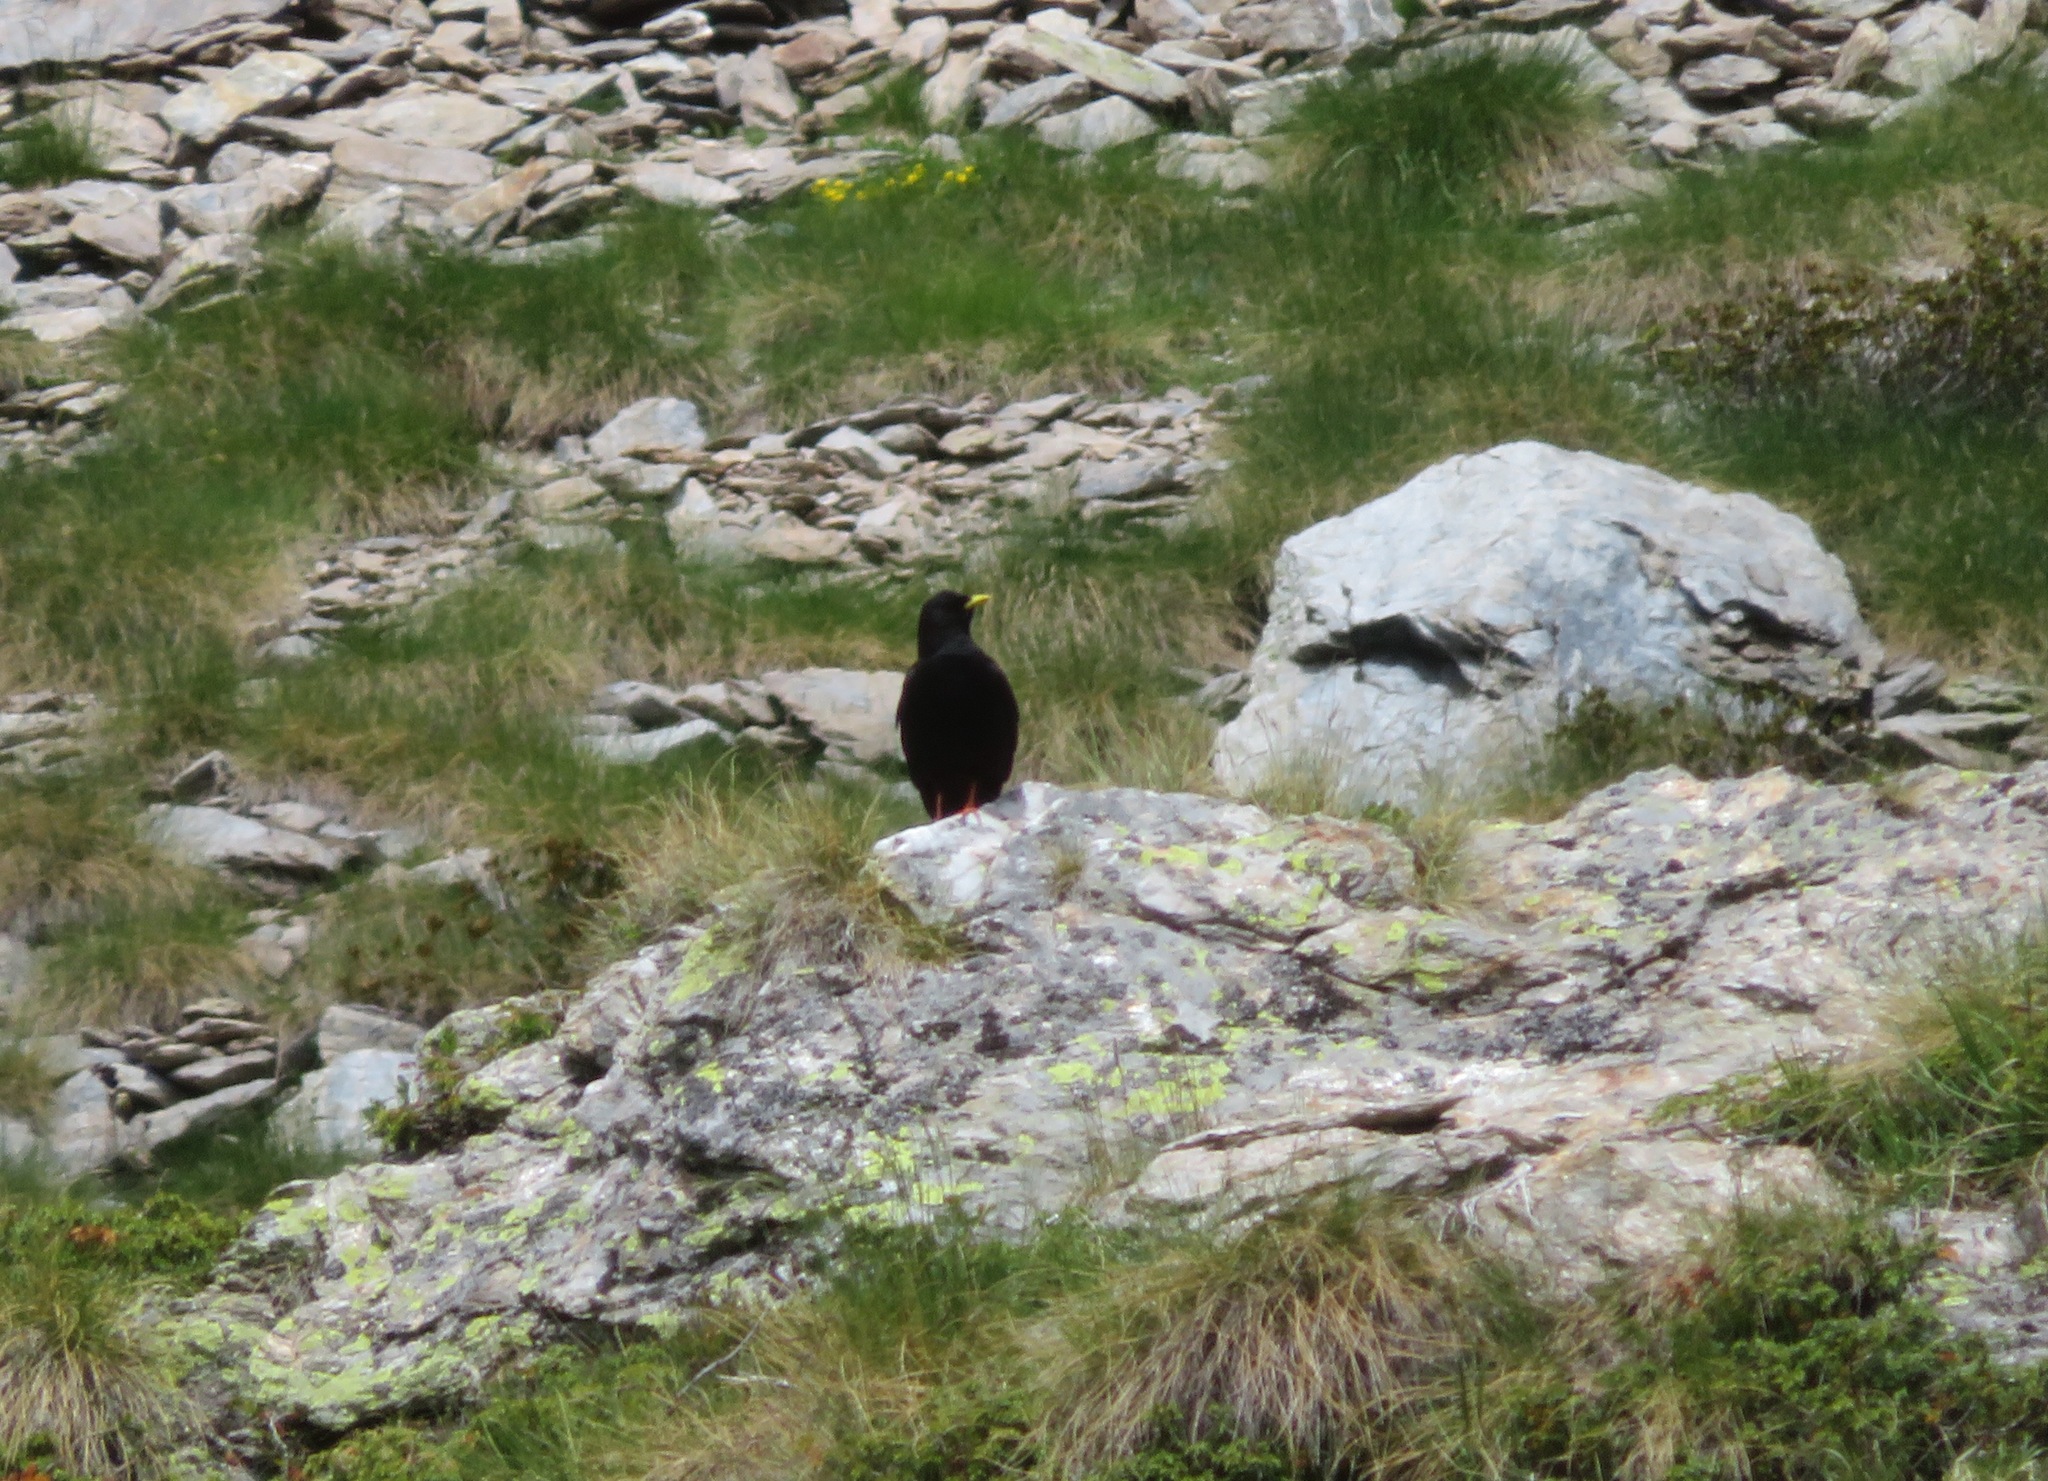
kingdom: Animalia
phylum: Chordata
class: Aves
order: Passeriformes
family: Corvidae
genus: Pyrrhocorax
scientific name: Pyrrhocorax graculus
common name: Alpine chough
